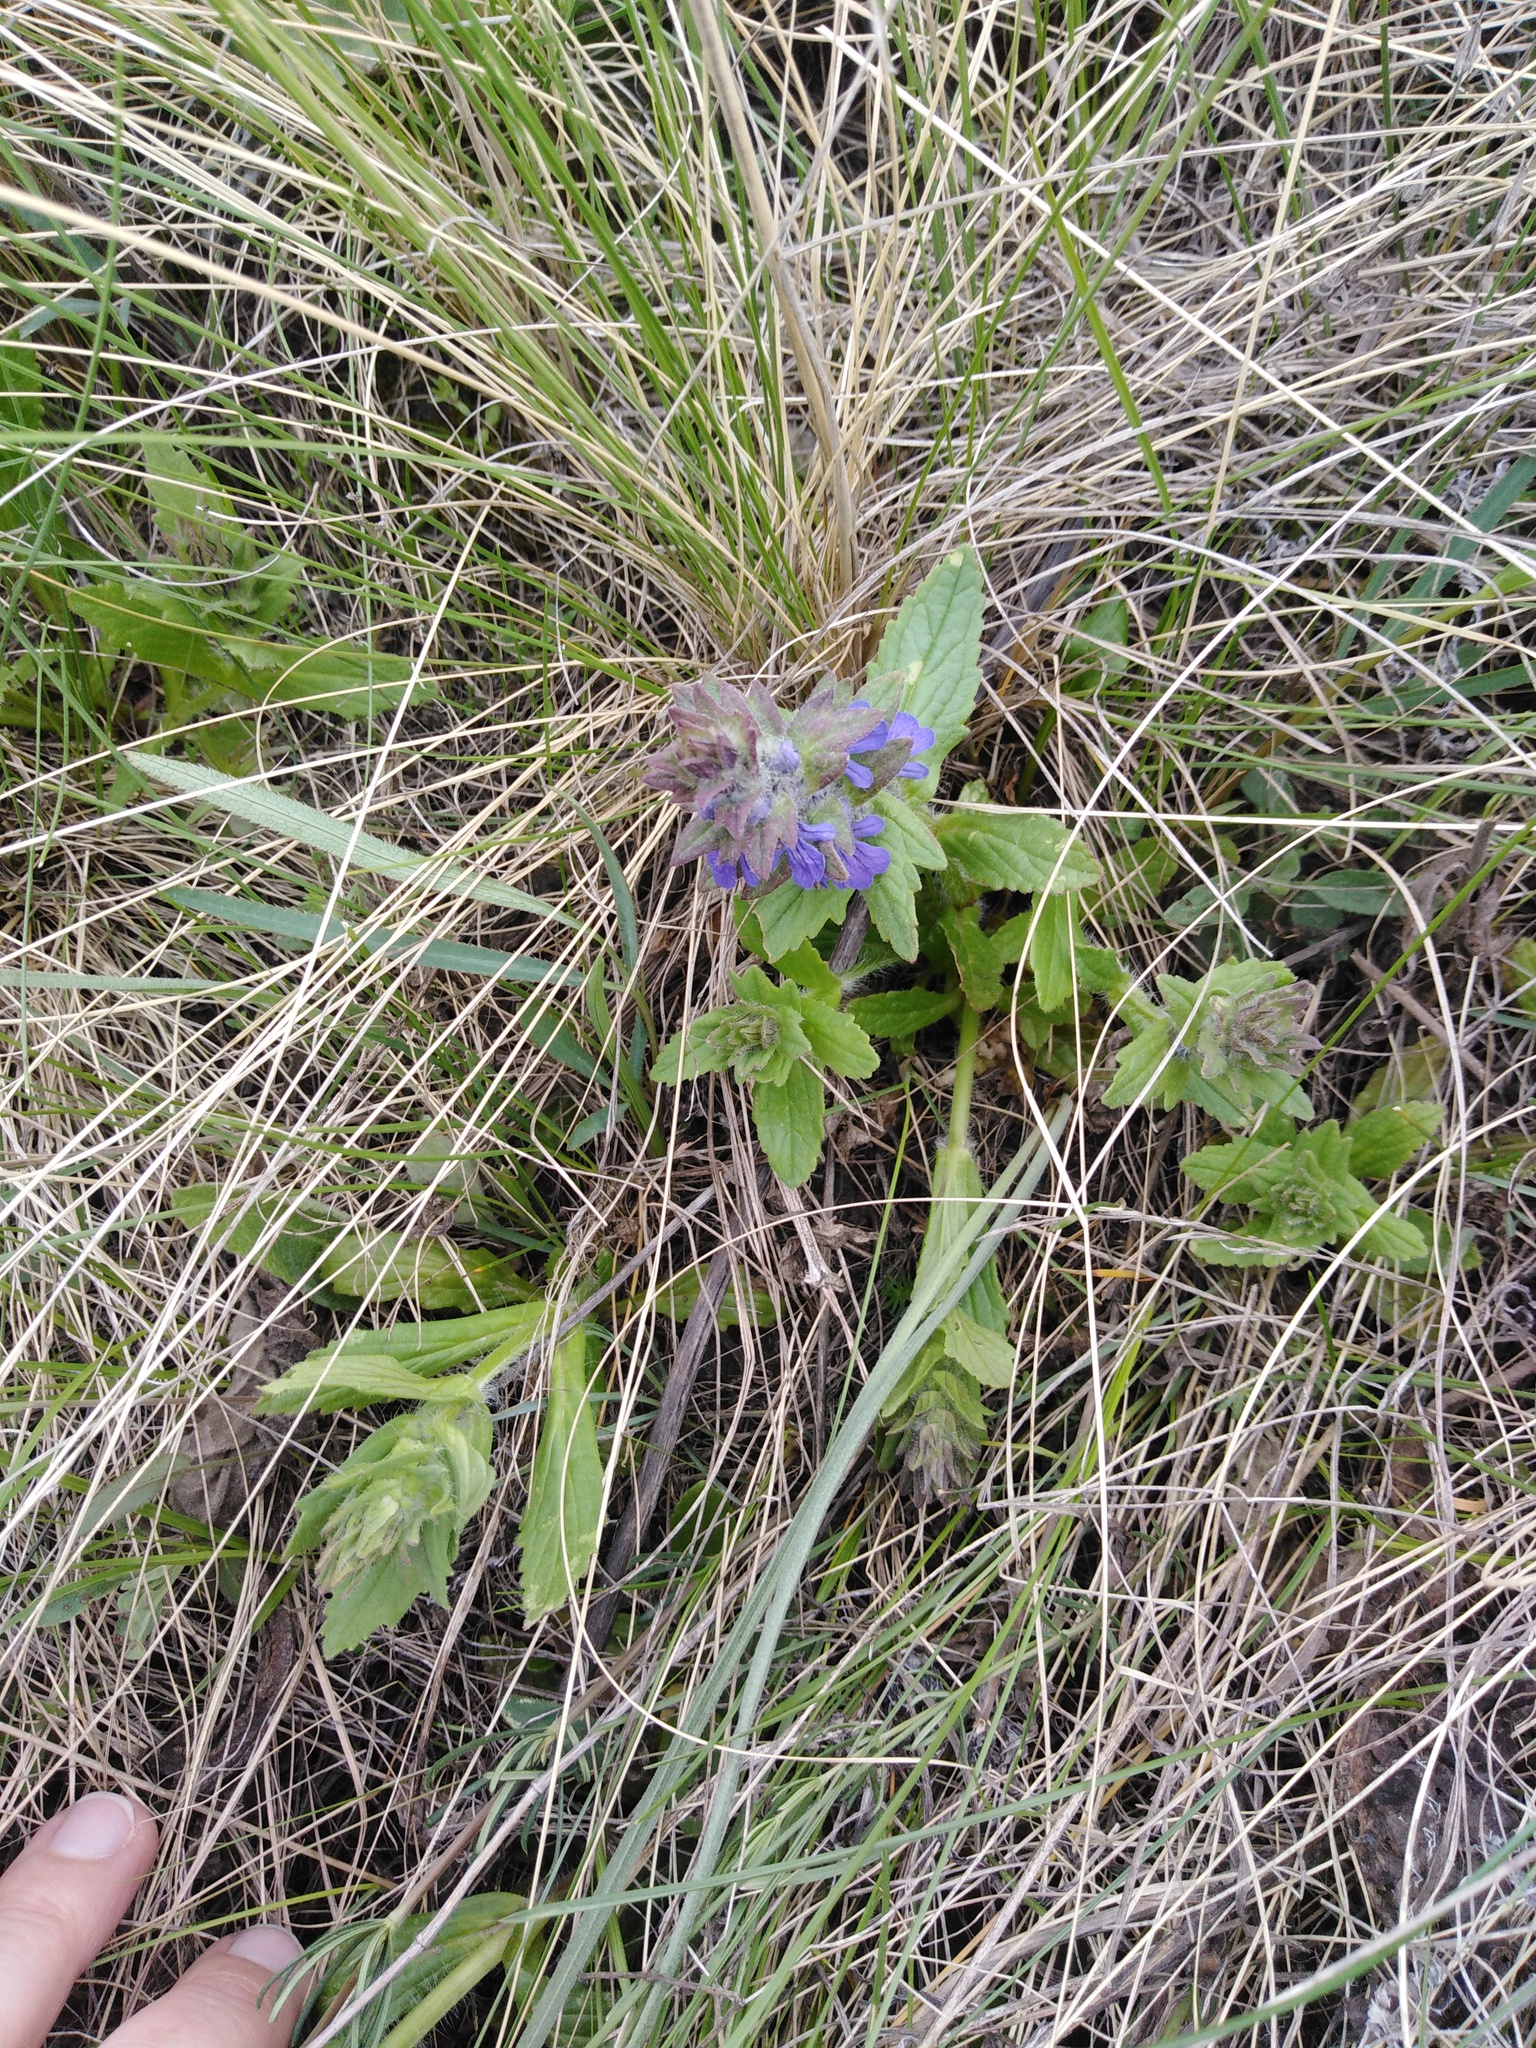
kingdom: Plantae
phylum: Tracheophyta
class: Magnoliopsida
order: Lamiales
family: Lamiaceae
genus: Ajuga
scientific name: Ajuga genevensis
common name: Blue bugle
